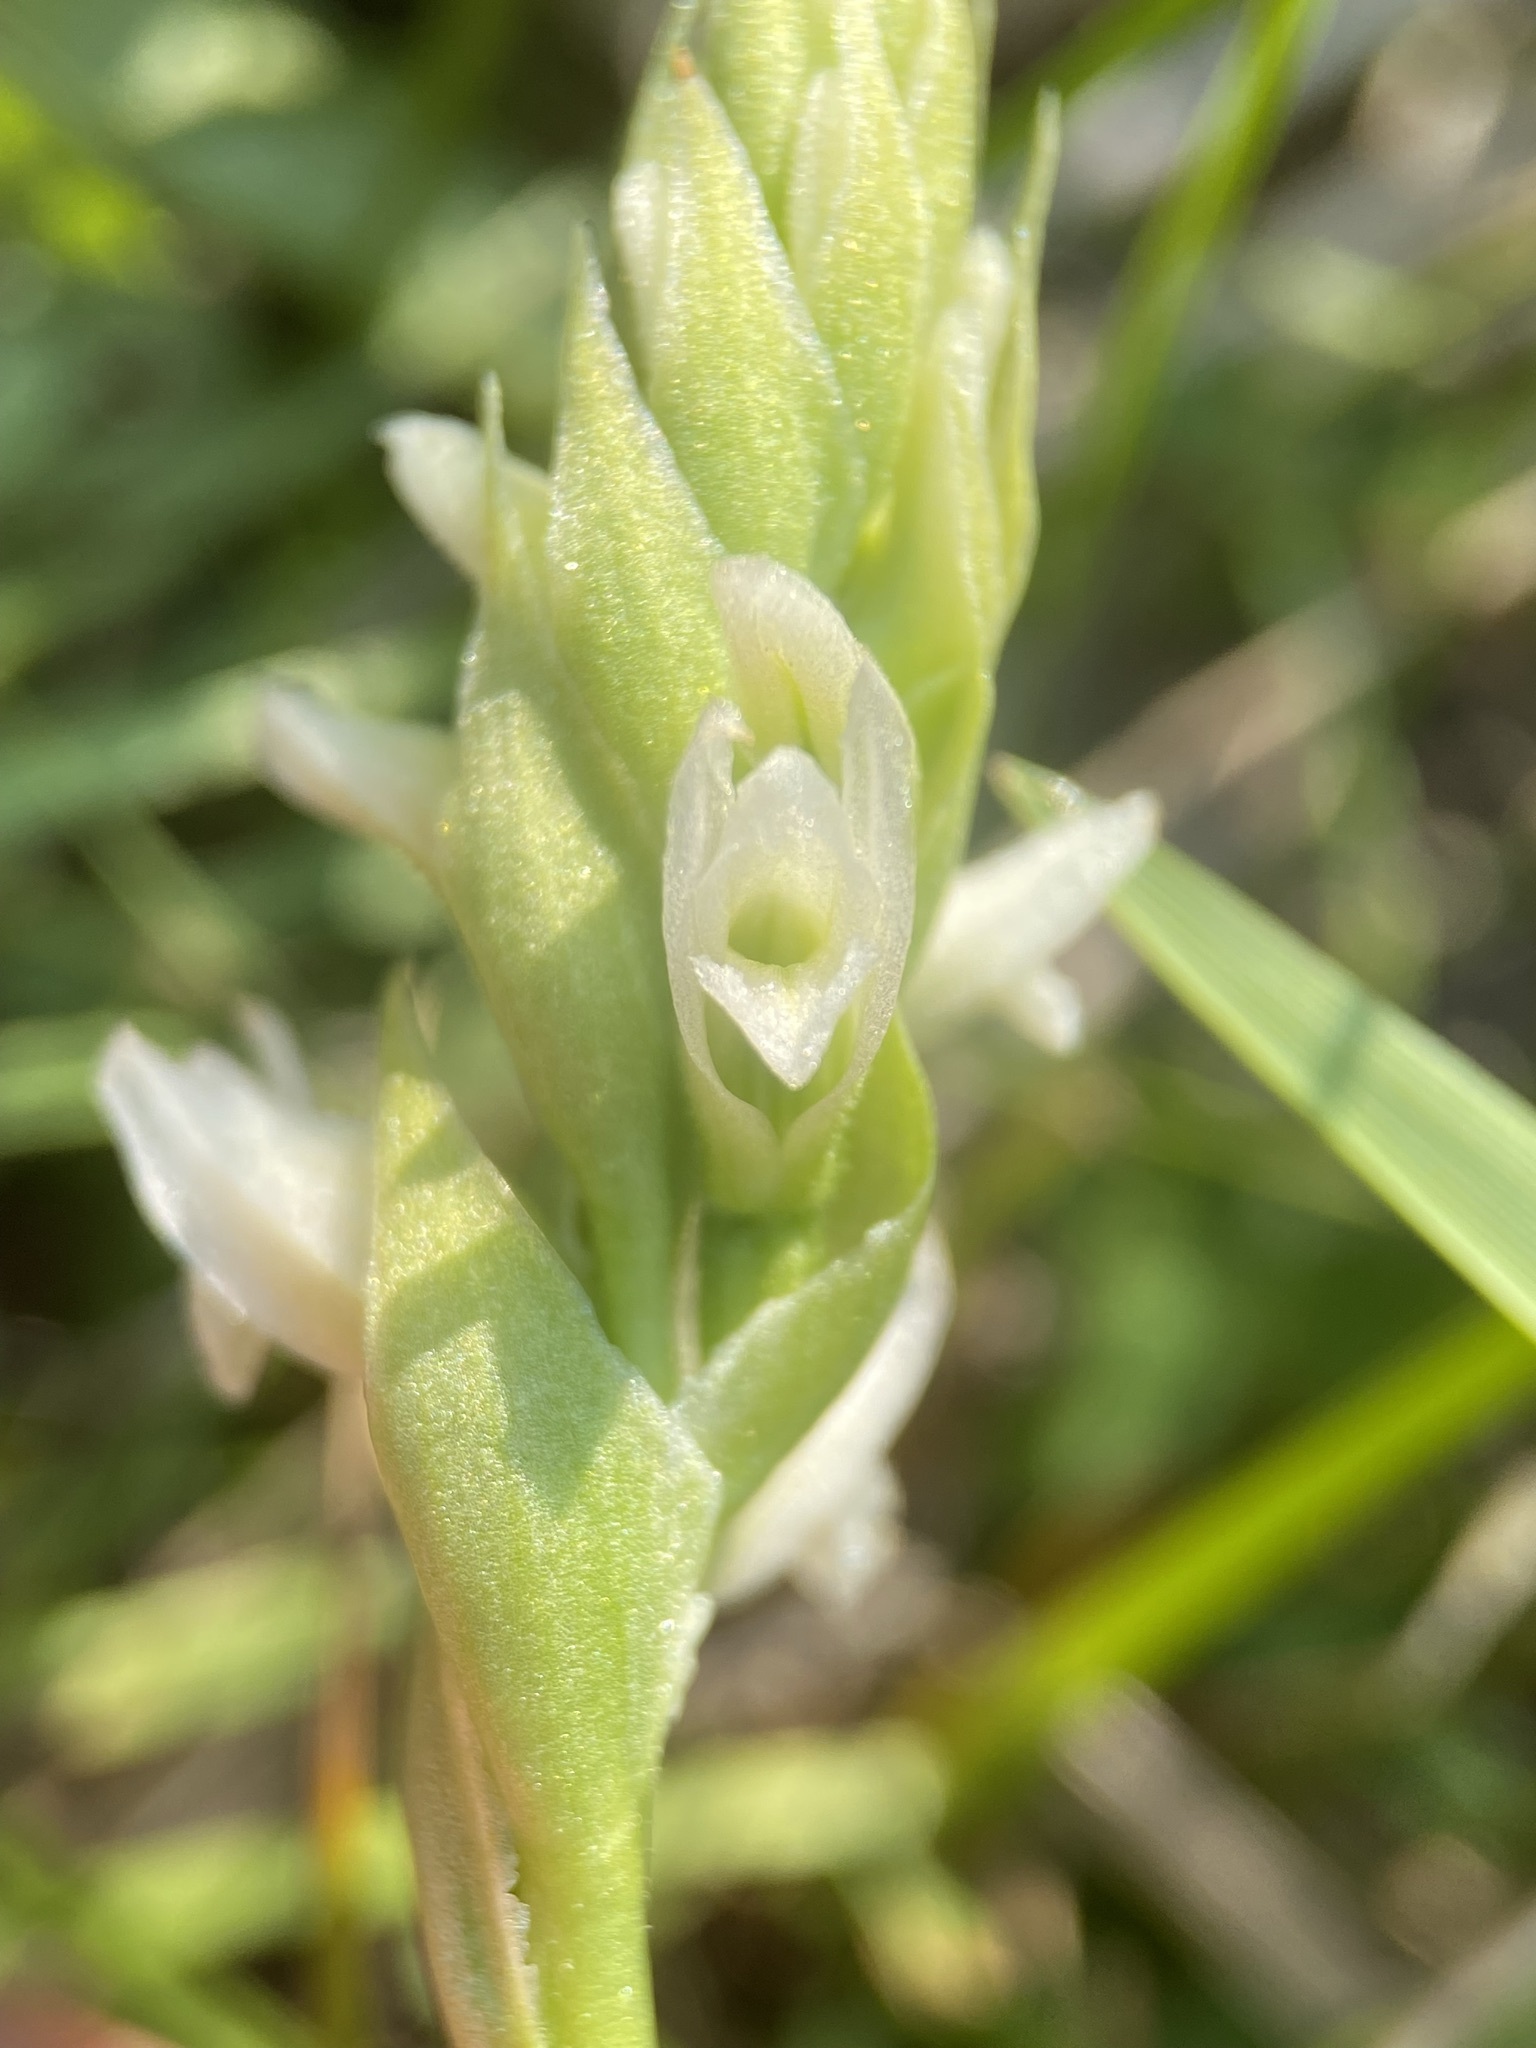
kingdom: Plantae
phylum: Tracheophyta
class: Liliopsida
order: Asparagales
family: Orchidaceae
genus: Spiranthes
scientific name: Spiranthes romanzoffiana
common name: Irish lady's-tresses
